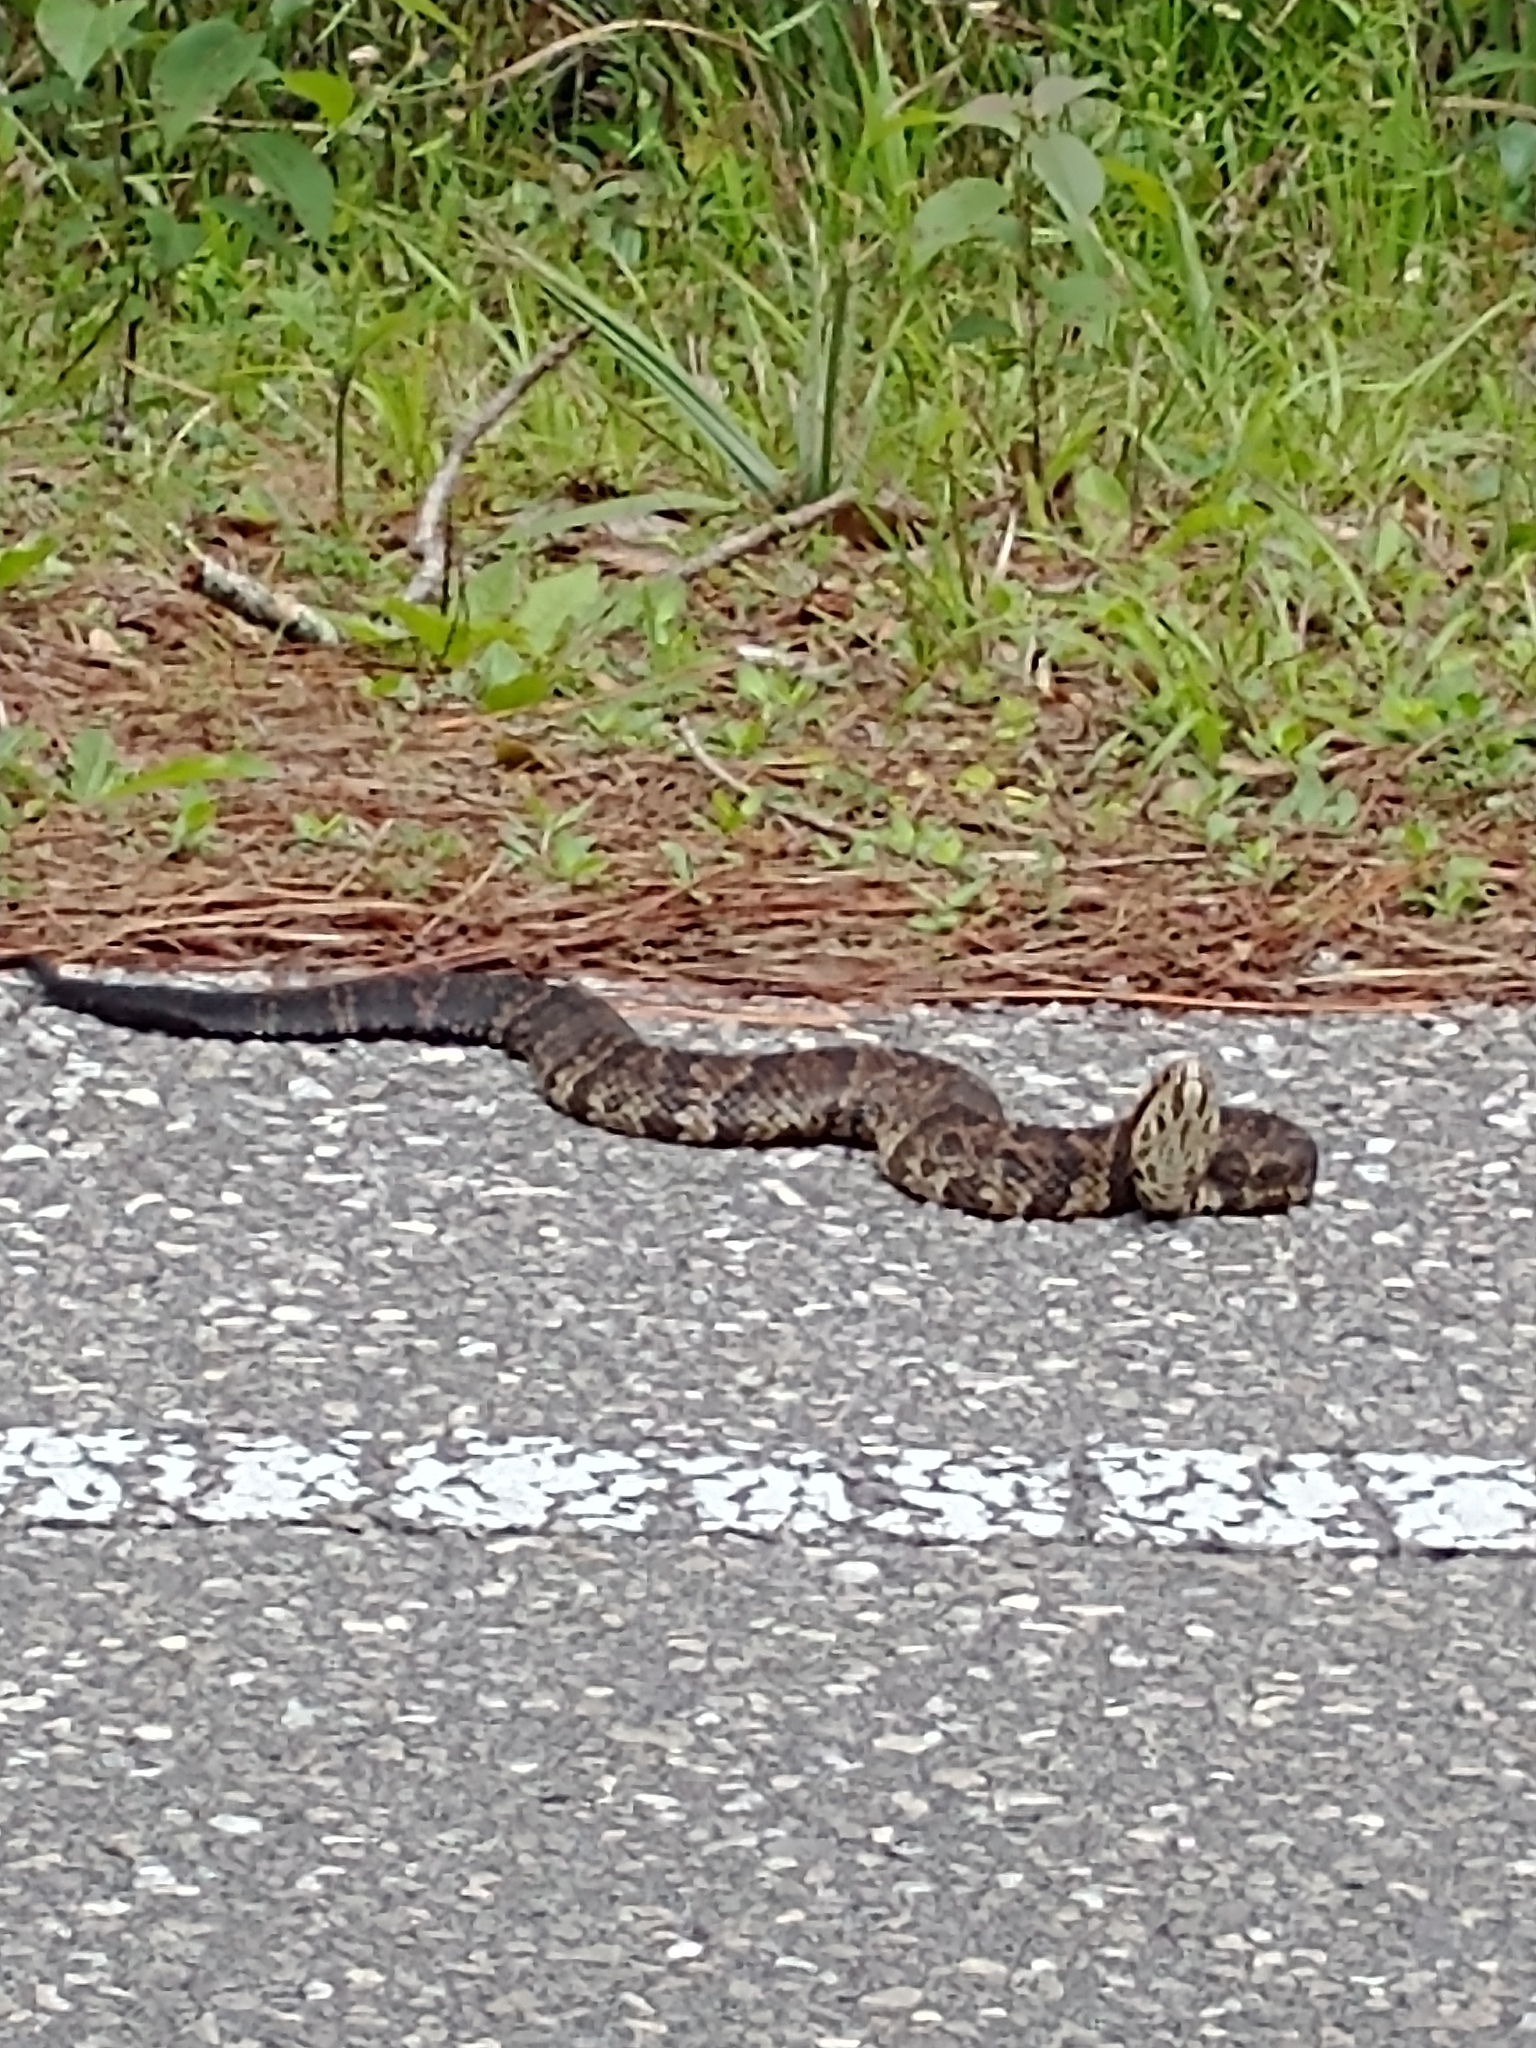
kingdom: Animalia
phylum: Chordata
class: Squamata
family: Viperidae
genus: Agkistrodon
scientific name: Agkistrodon conanti
